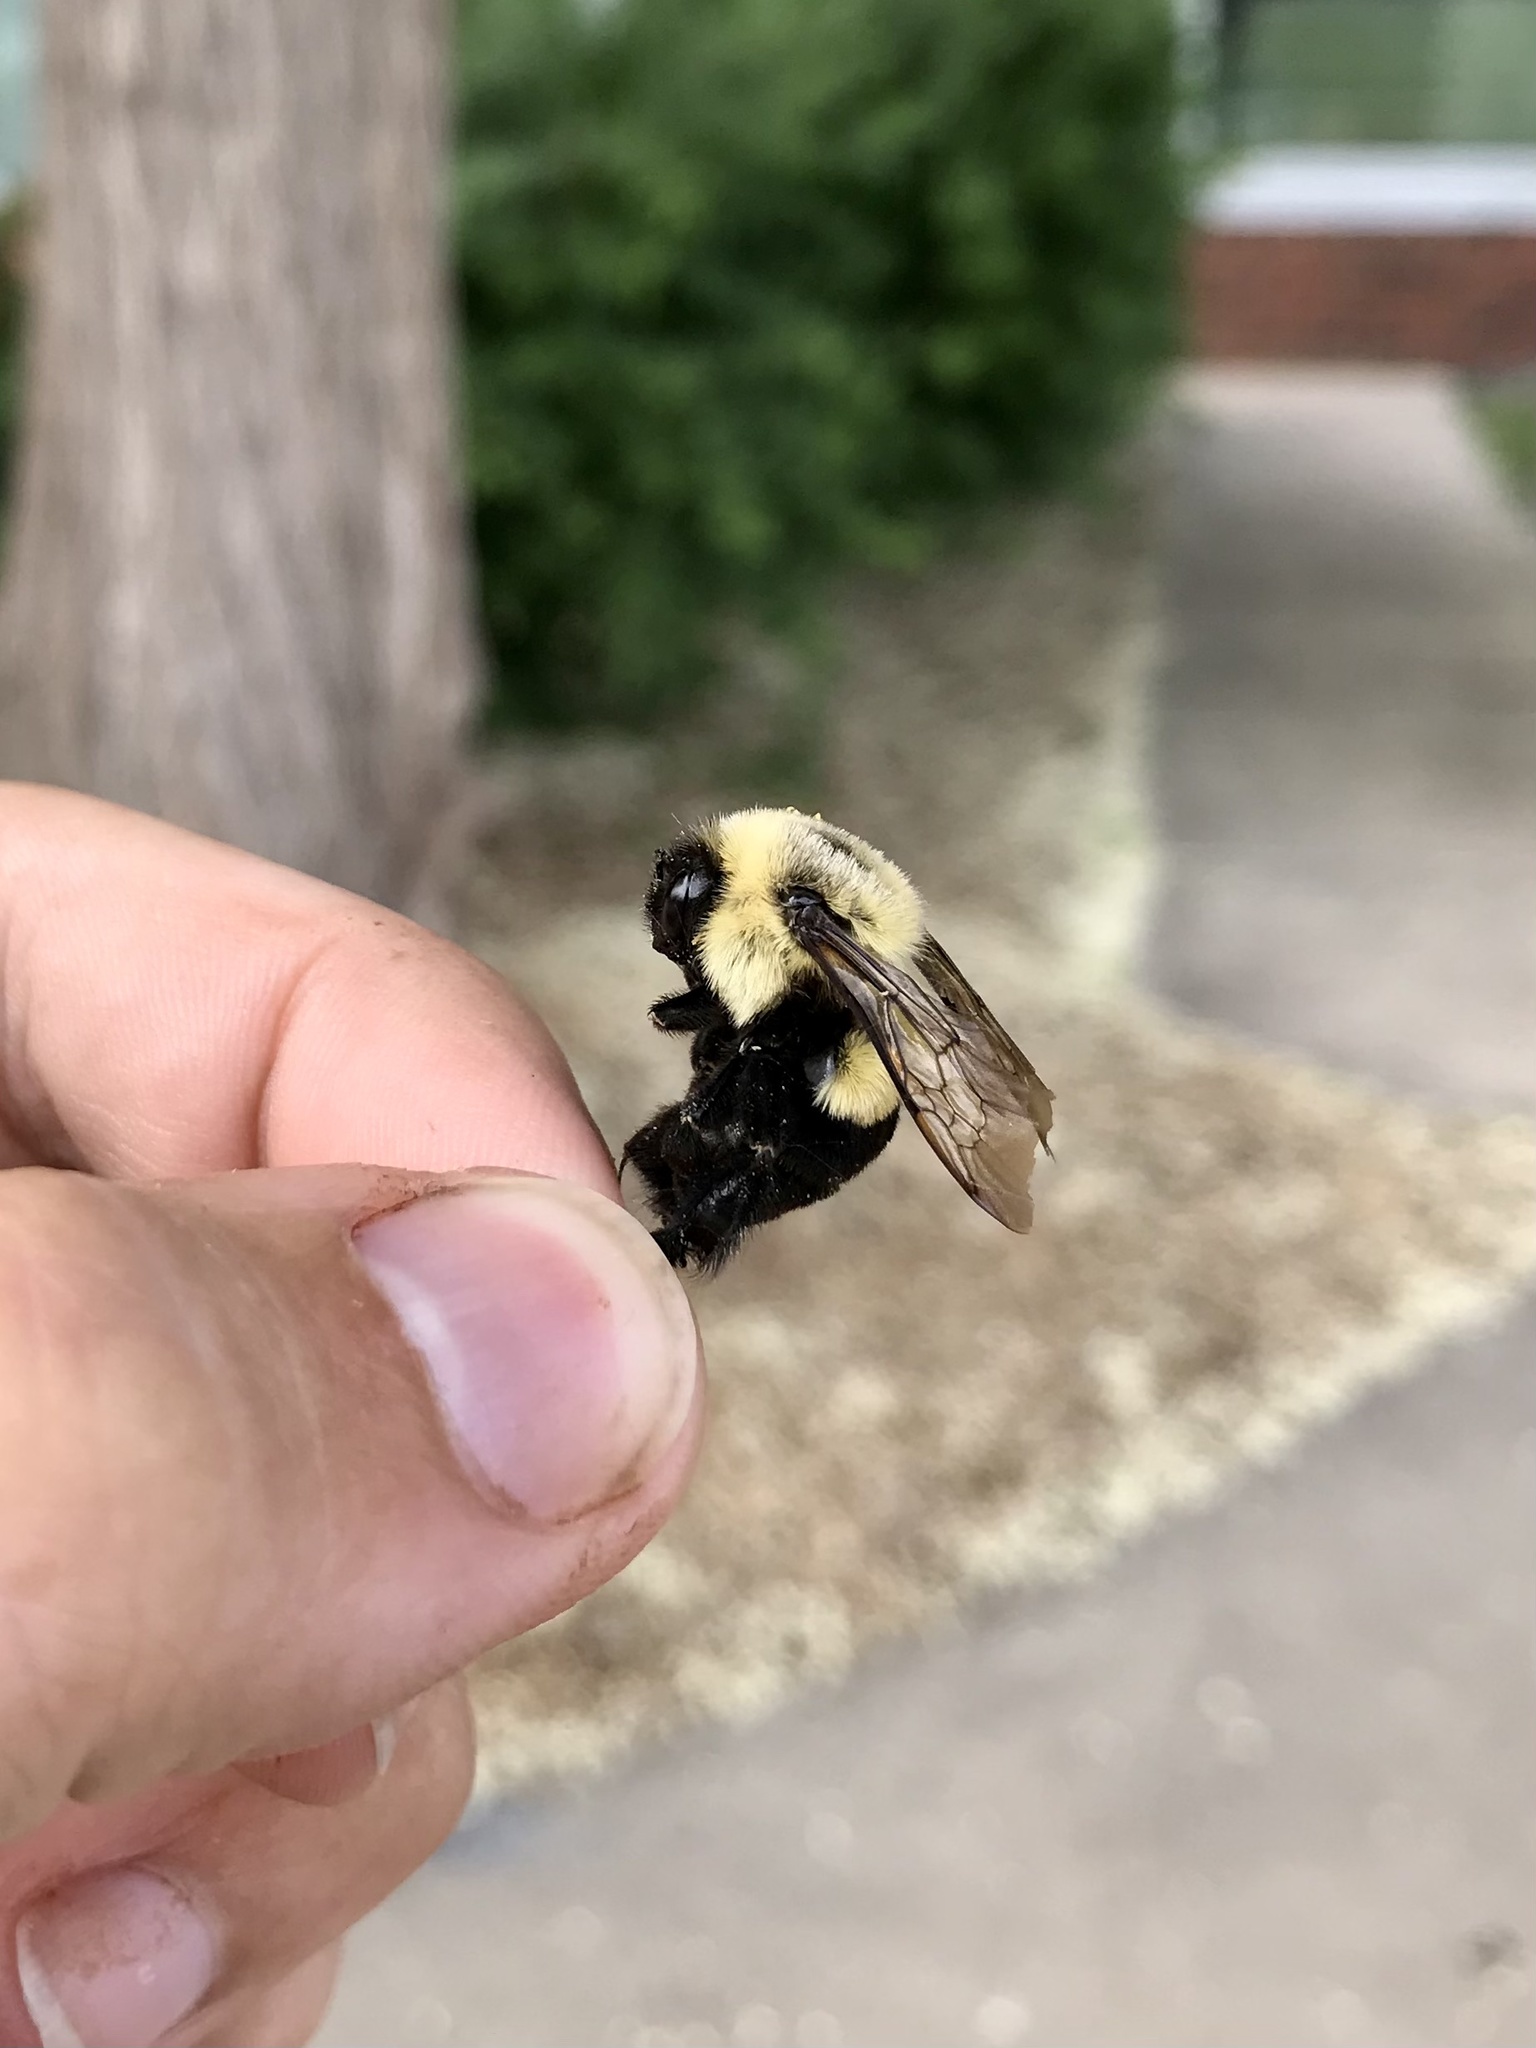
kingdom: Animalia
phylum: Arthropoda
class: Insecta
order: Hymenoptera
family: Apidae
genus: Bombus
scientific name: Bombus impatiens
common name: Common eastern bumble bee
